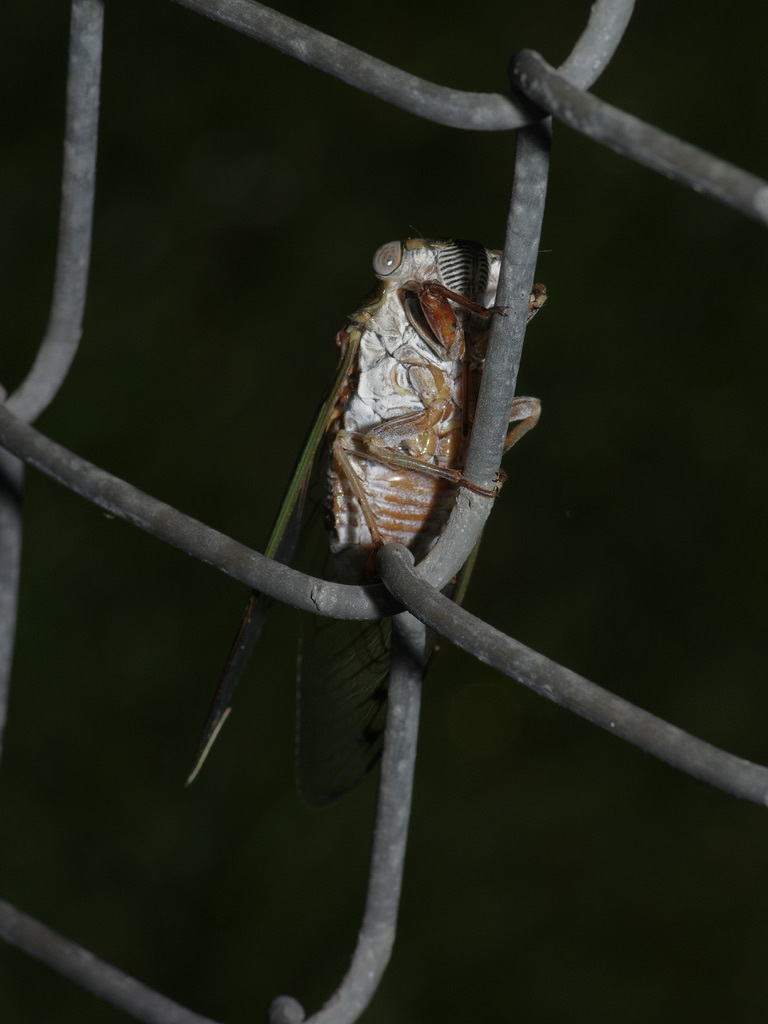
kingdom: Animalia
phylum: Arthropoda
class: Insecta
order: Hemiptera
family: Cicadidae
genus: Megatibicen
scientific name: Megatibicen resh
